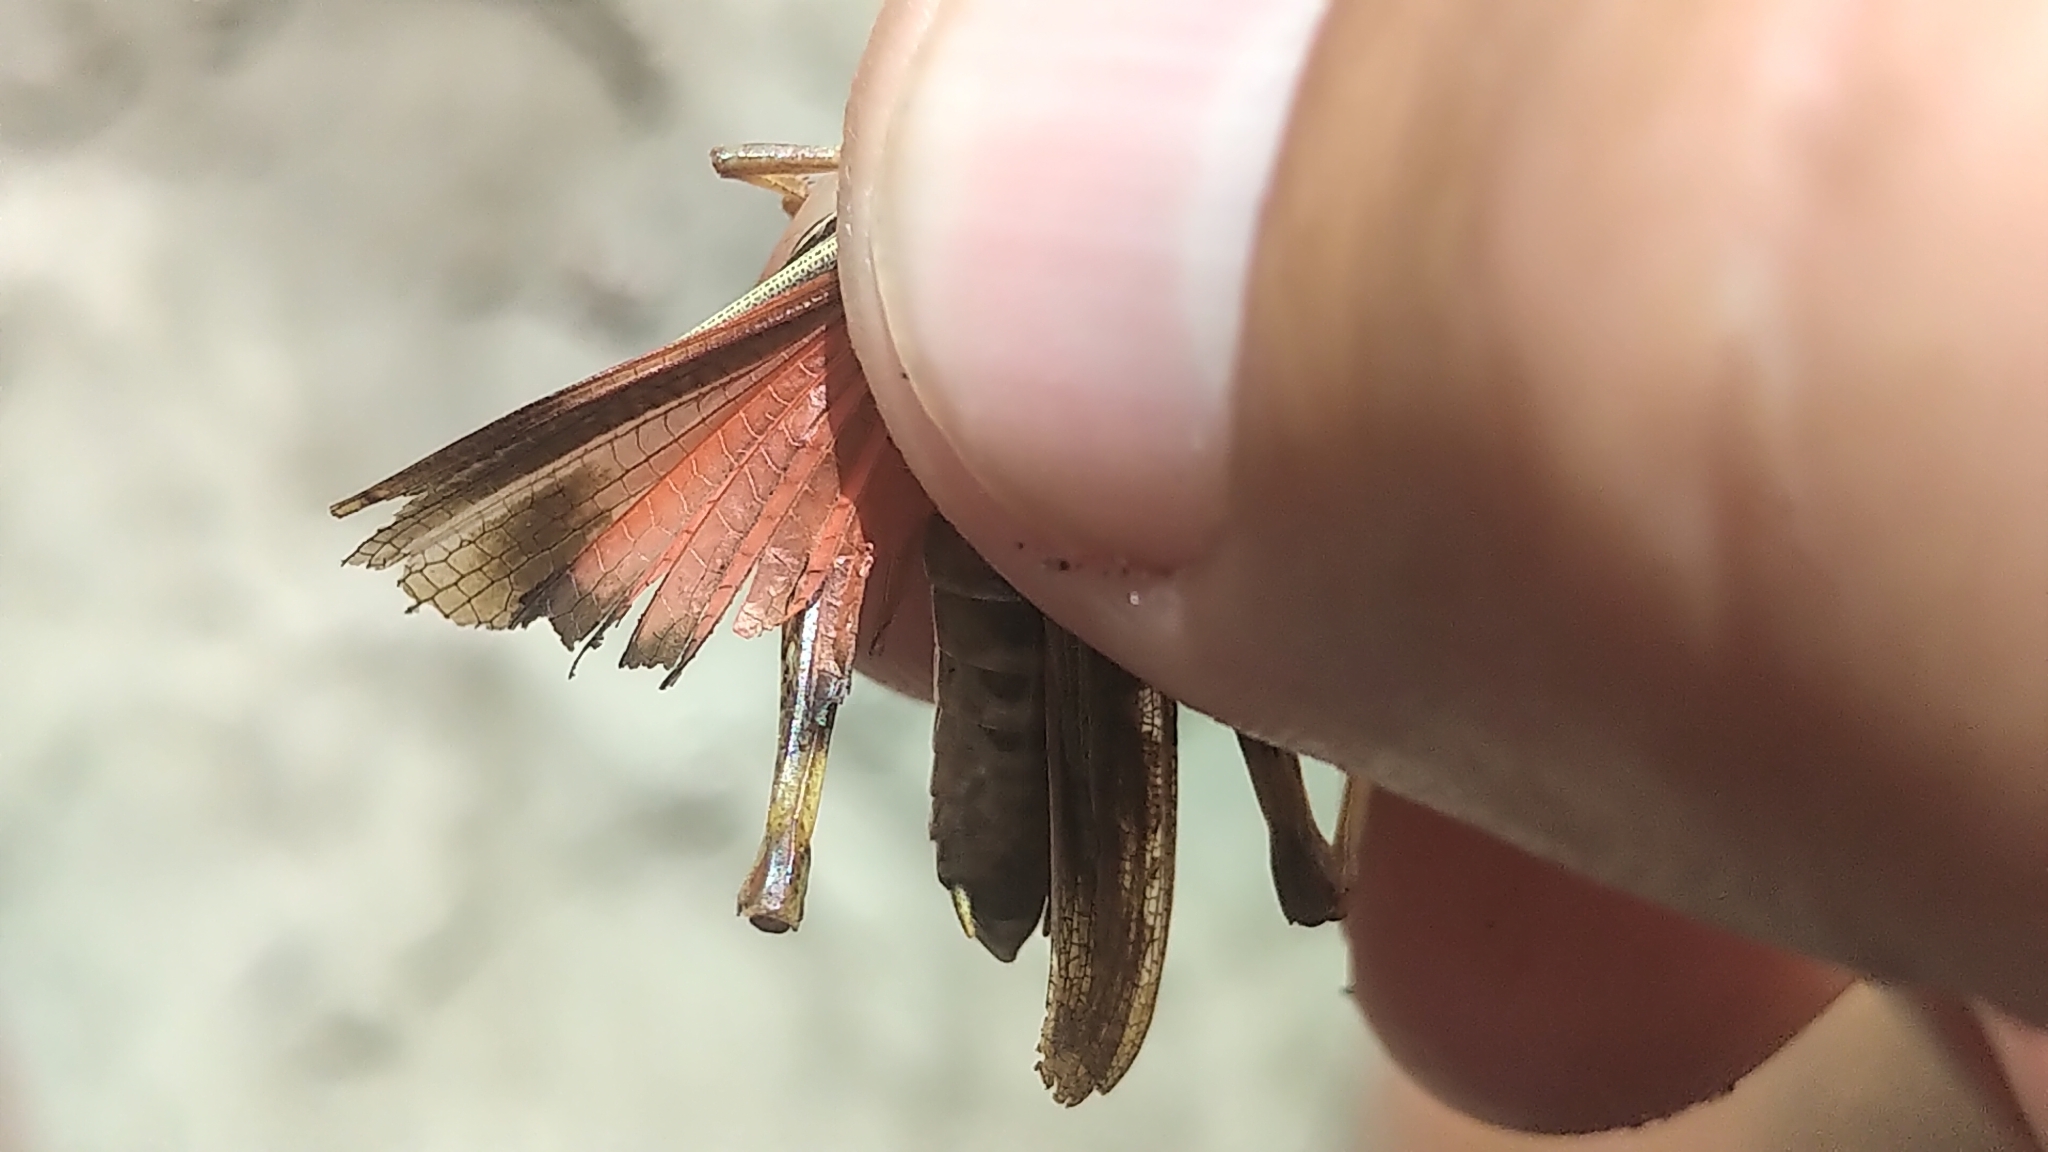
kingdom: Animalia
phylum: Arthropoda
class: Insecta
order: Orthoptera
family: Acrididae
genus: Pardalophora
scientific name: Pardalophora apiculata
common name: Coral-winged locust
